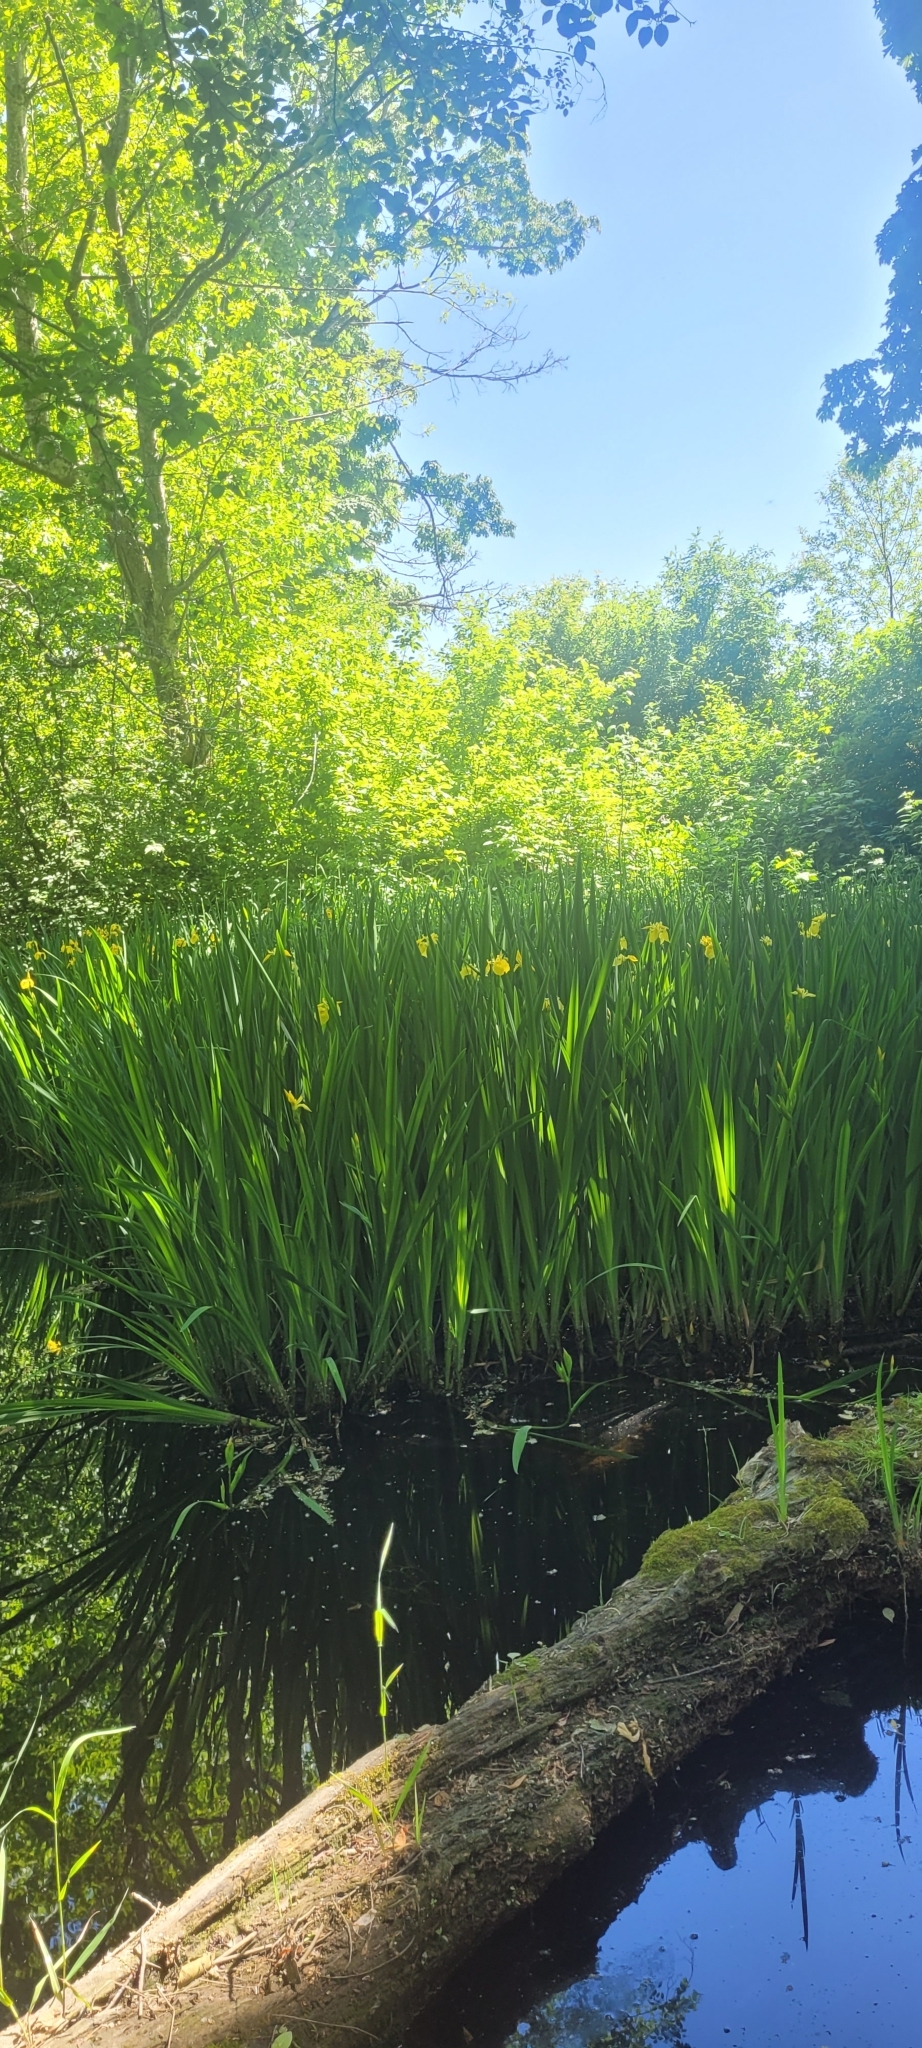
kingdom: Plantae
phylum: Tracheophyta
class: Liliopsida
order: Asparagales
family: Iridaceae
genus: Iris
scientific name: Iris pseudacorus
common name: Yellow flag
